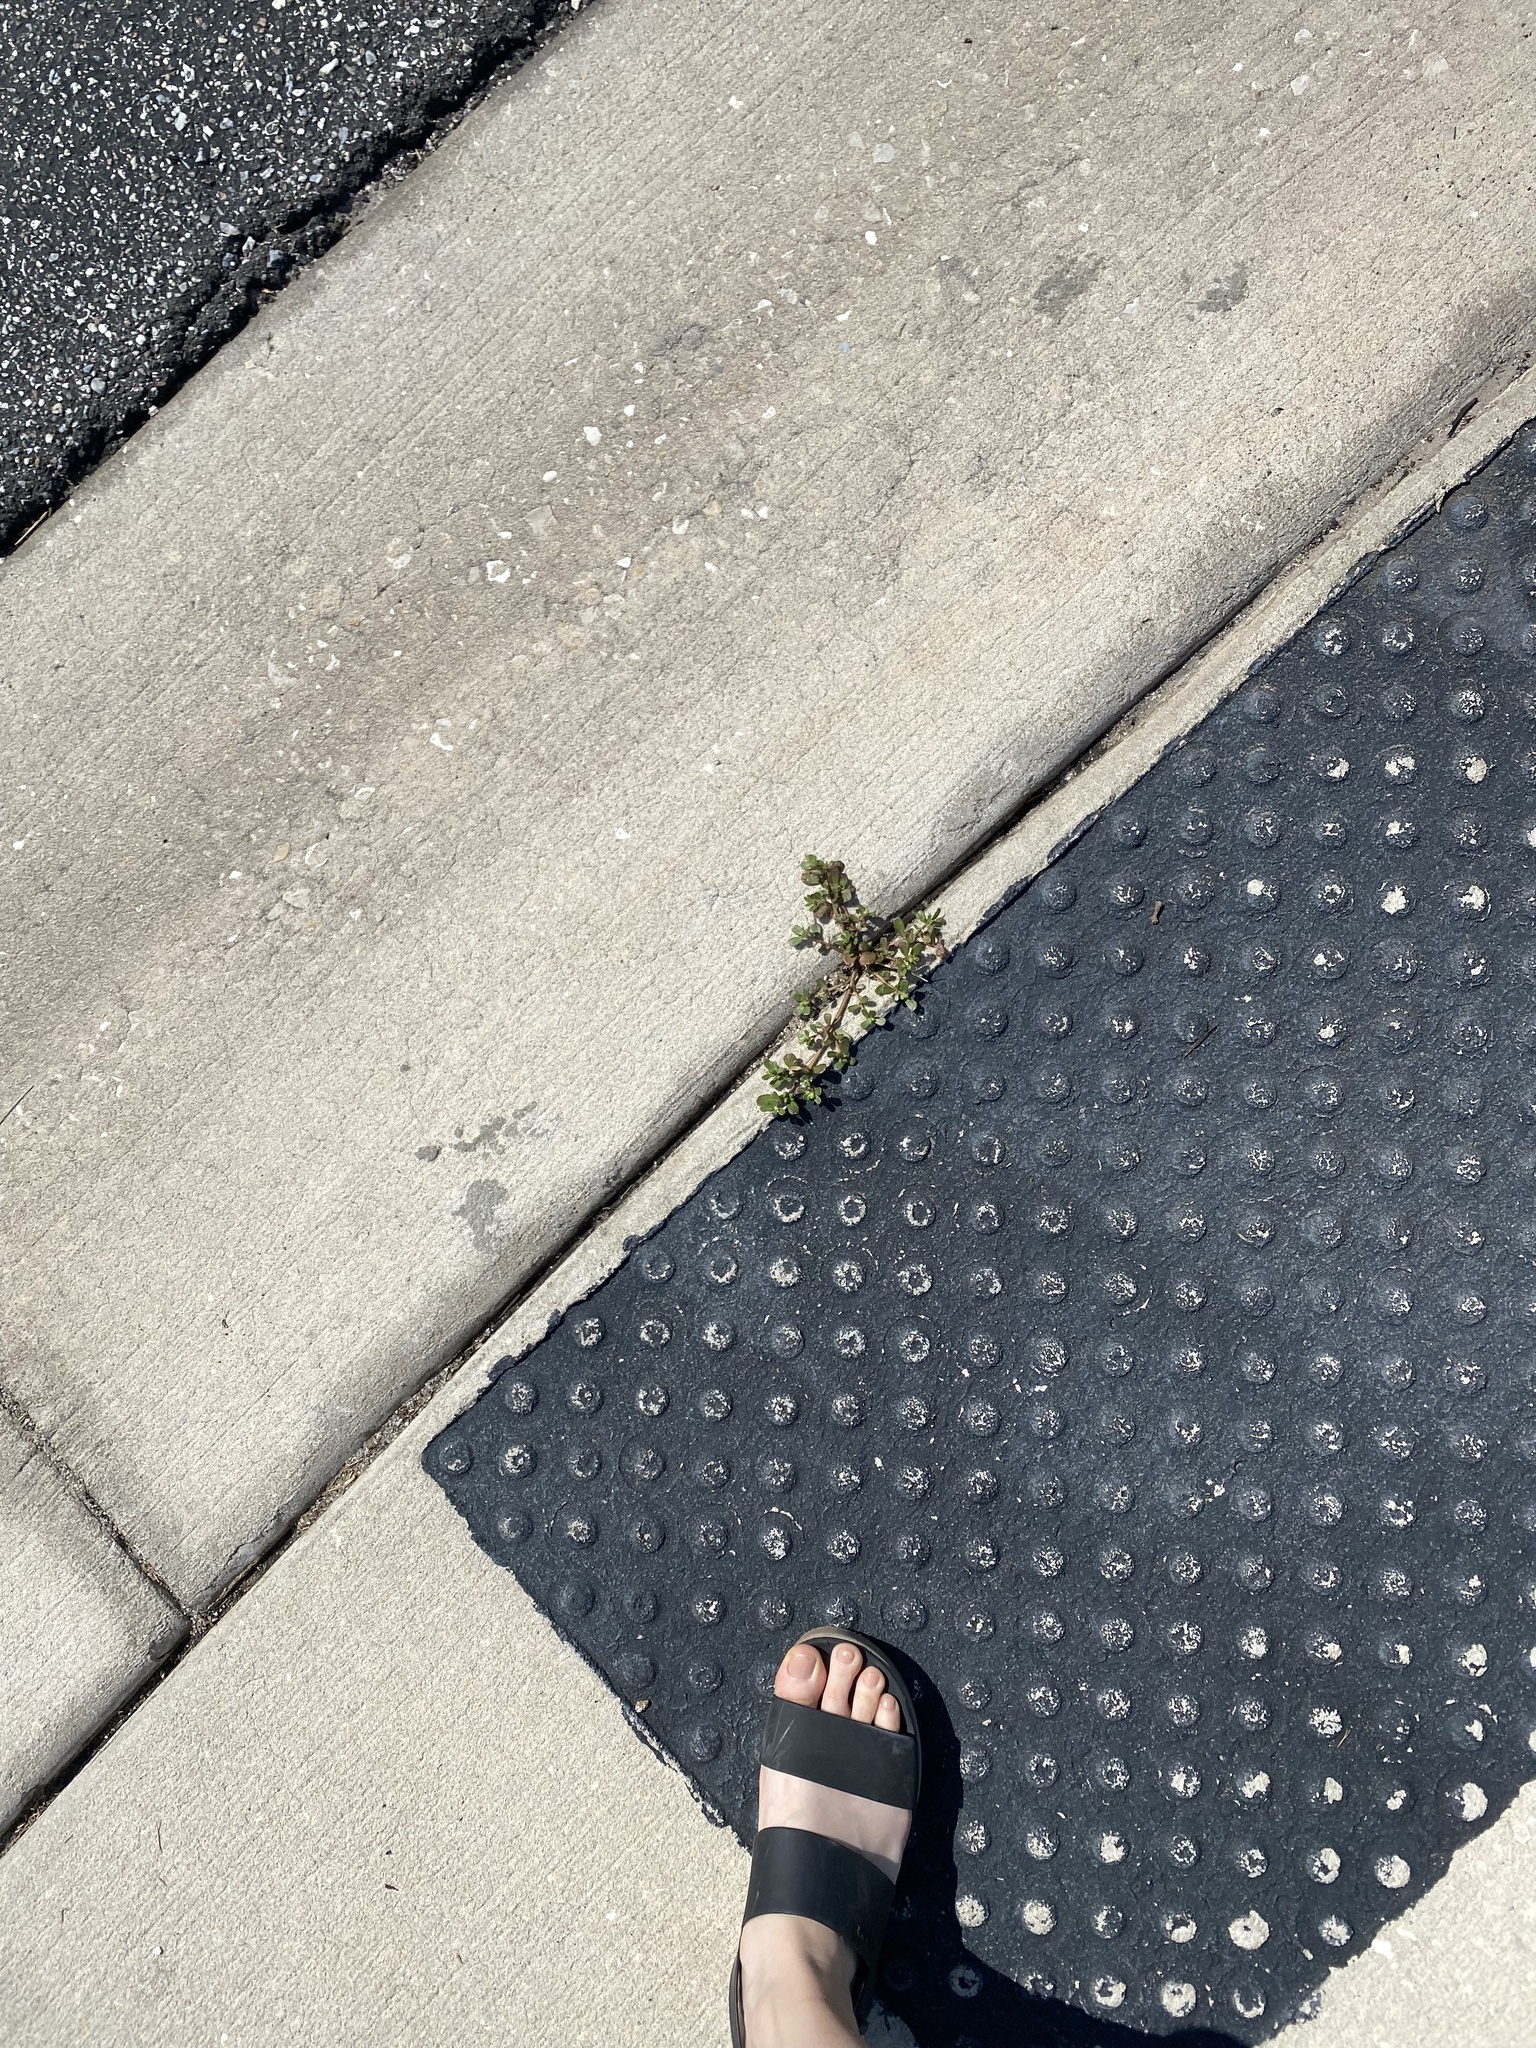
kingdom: Plantae
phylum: Tracheophyta
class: Magnoliopsida
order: Caryophyllales
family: Portulacaceae
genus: Portulaca
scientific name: Portulaca oleracea
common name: Common purslane
